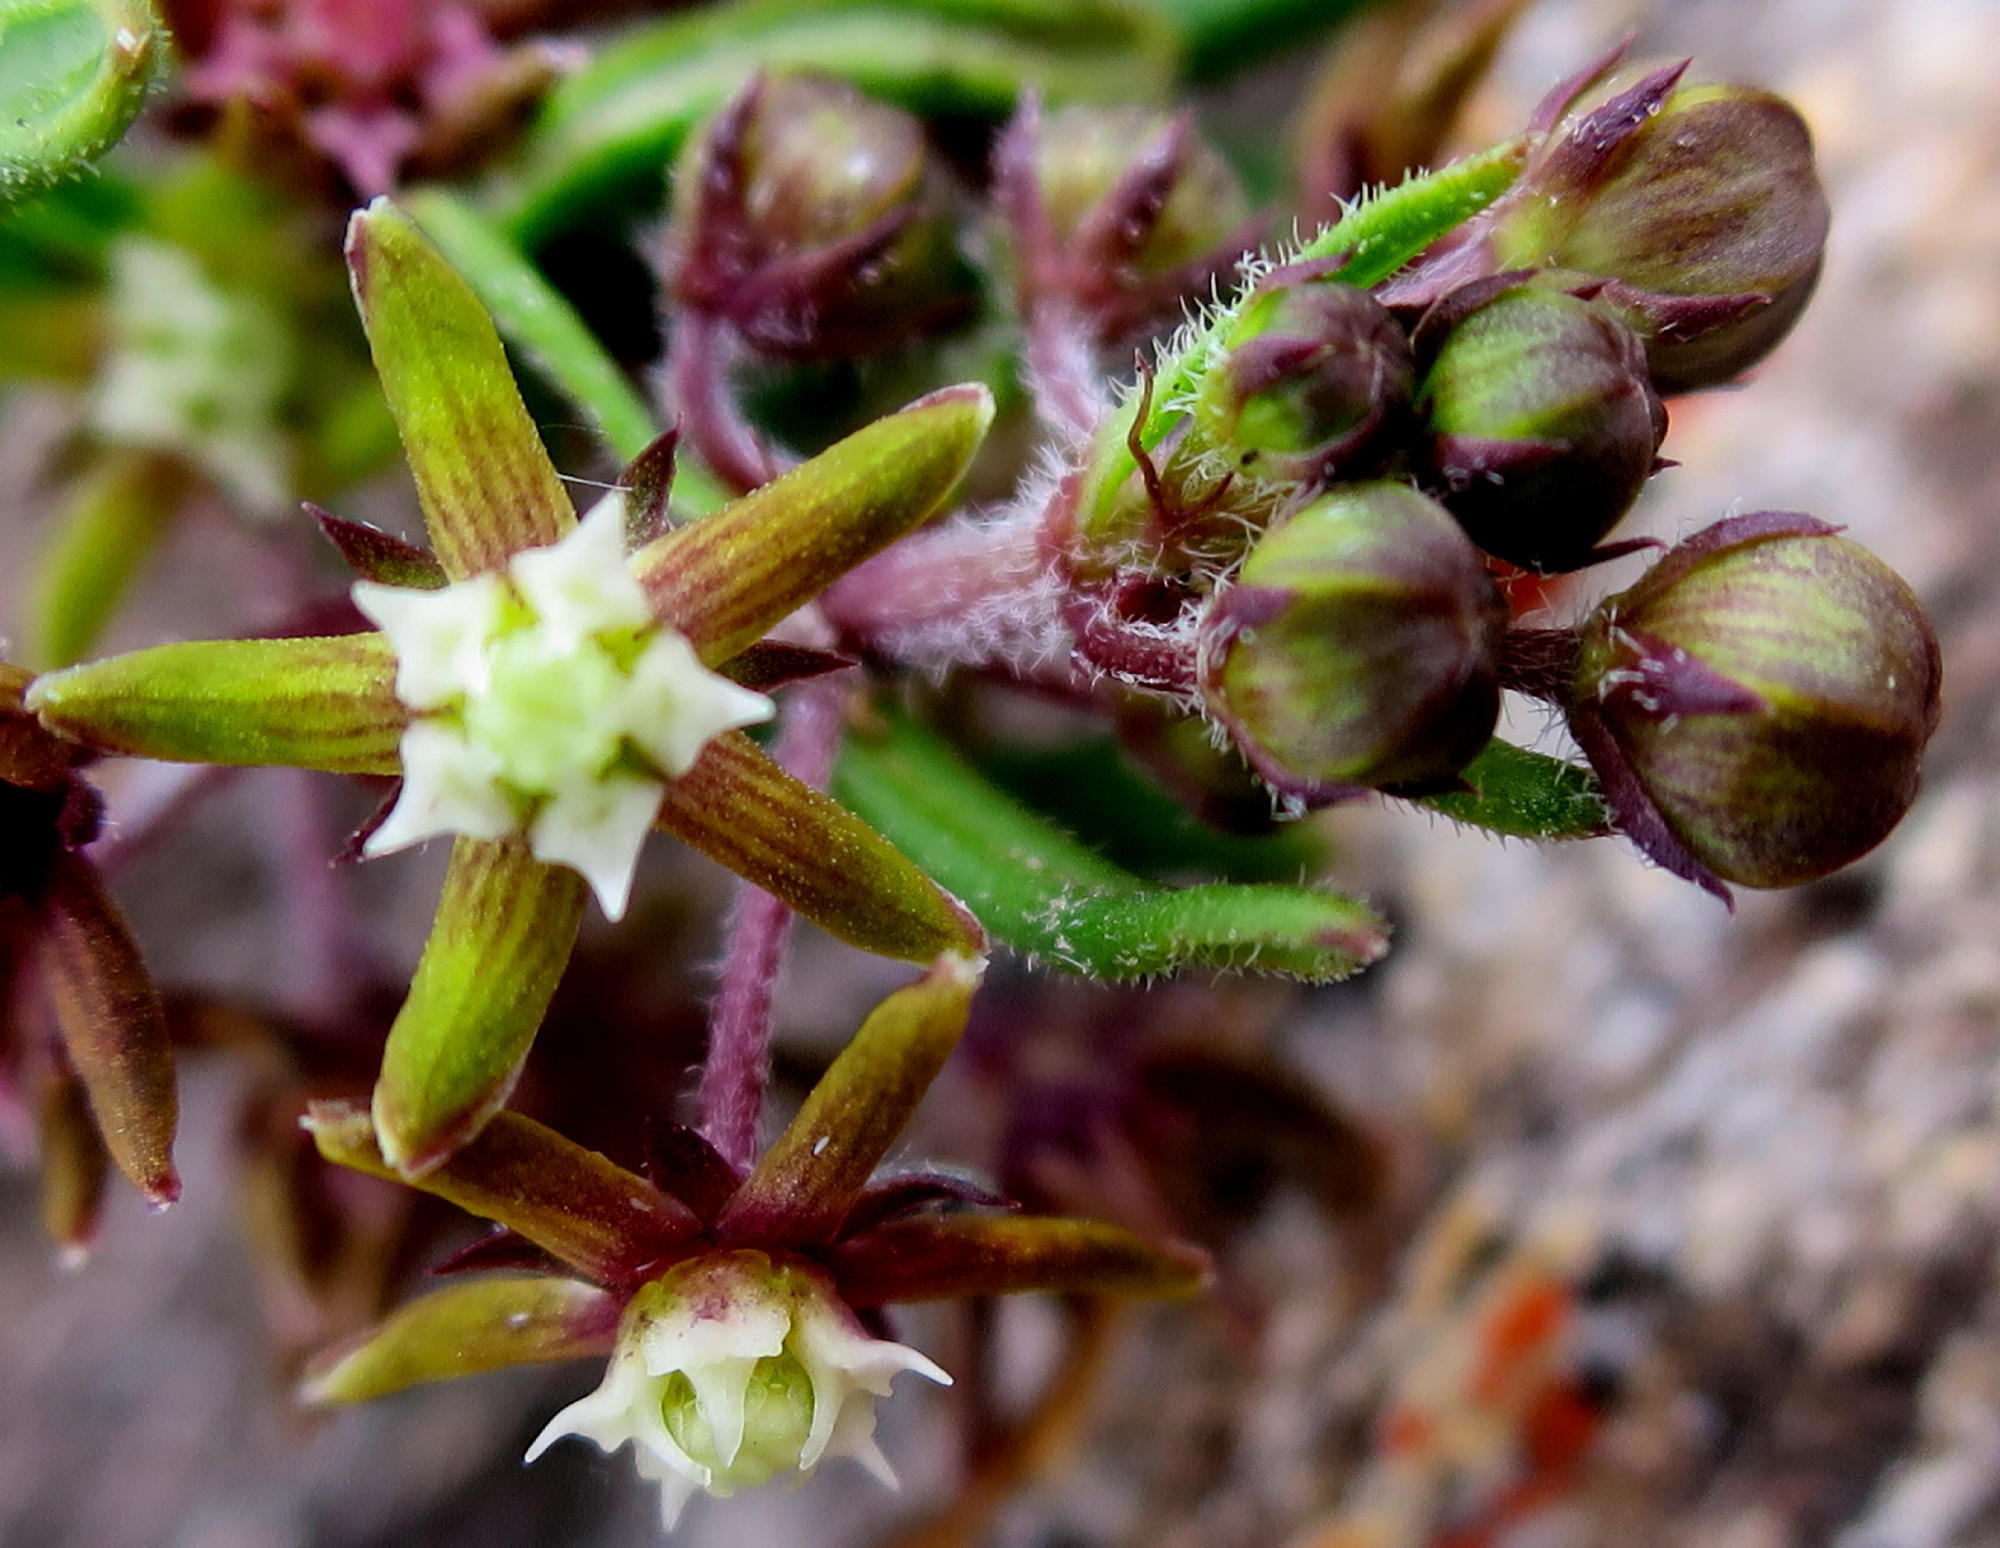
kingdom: Plantae
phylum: Tracheophyta
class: Magnoliopsida
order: Gentianales
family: Apocynaceae
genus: Aspidoglossum
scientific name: Aspidoglossum heterophyllum
